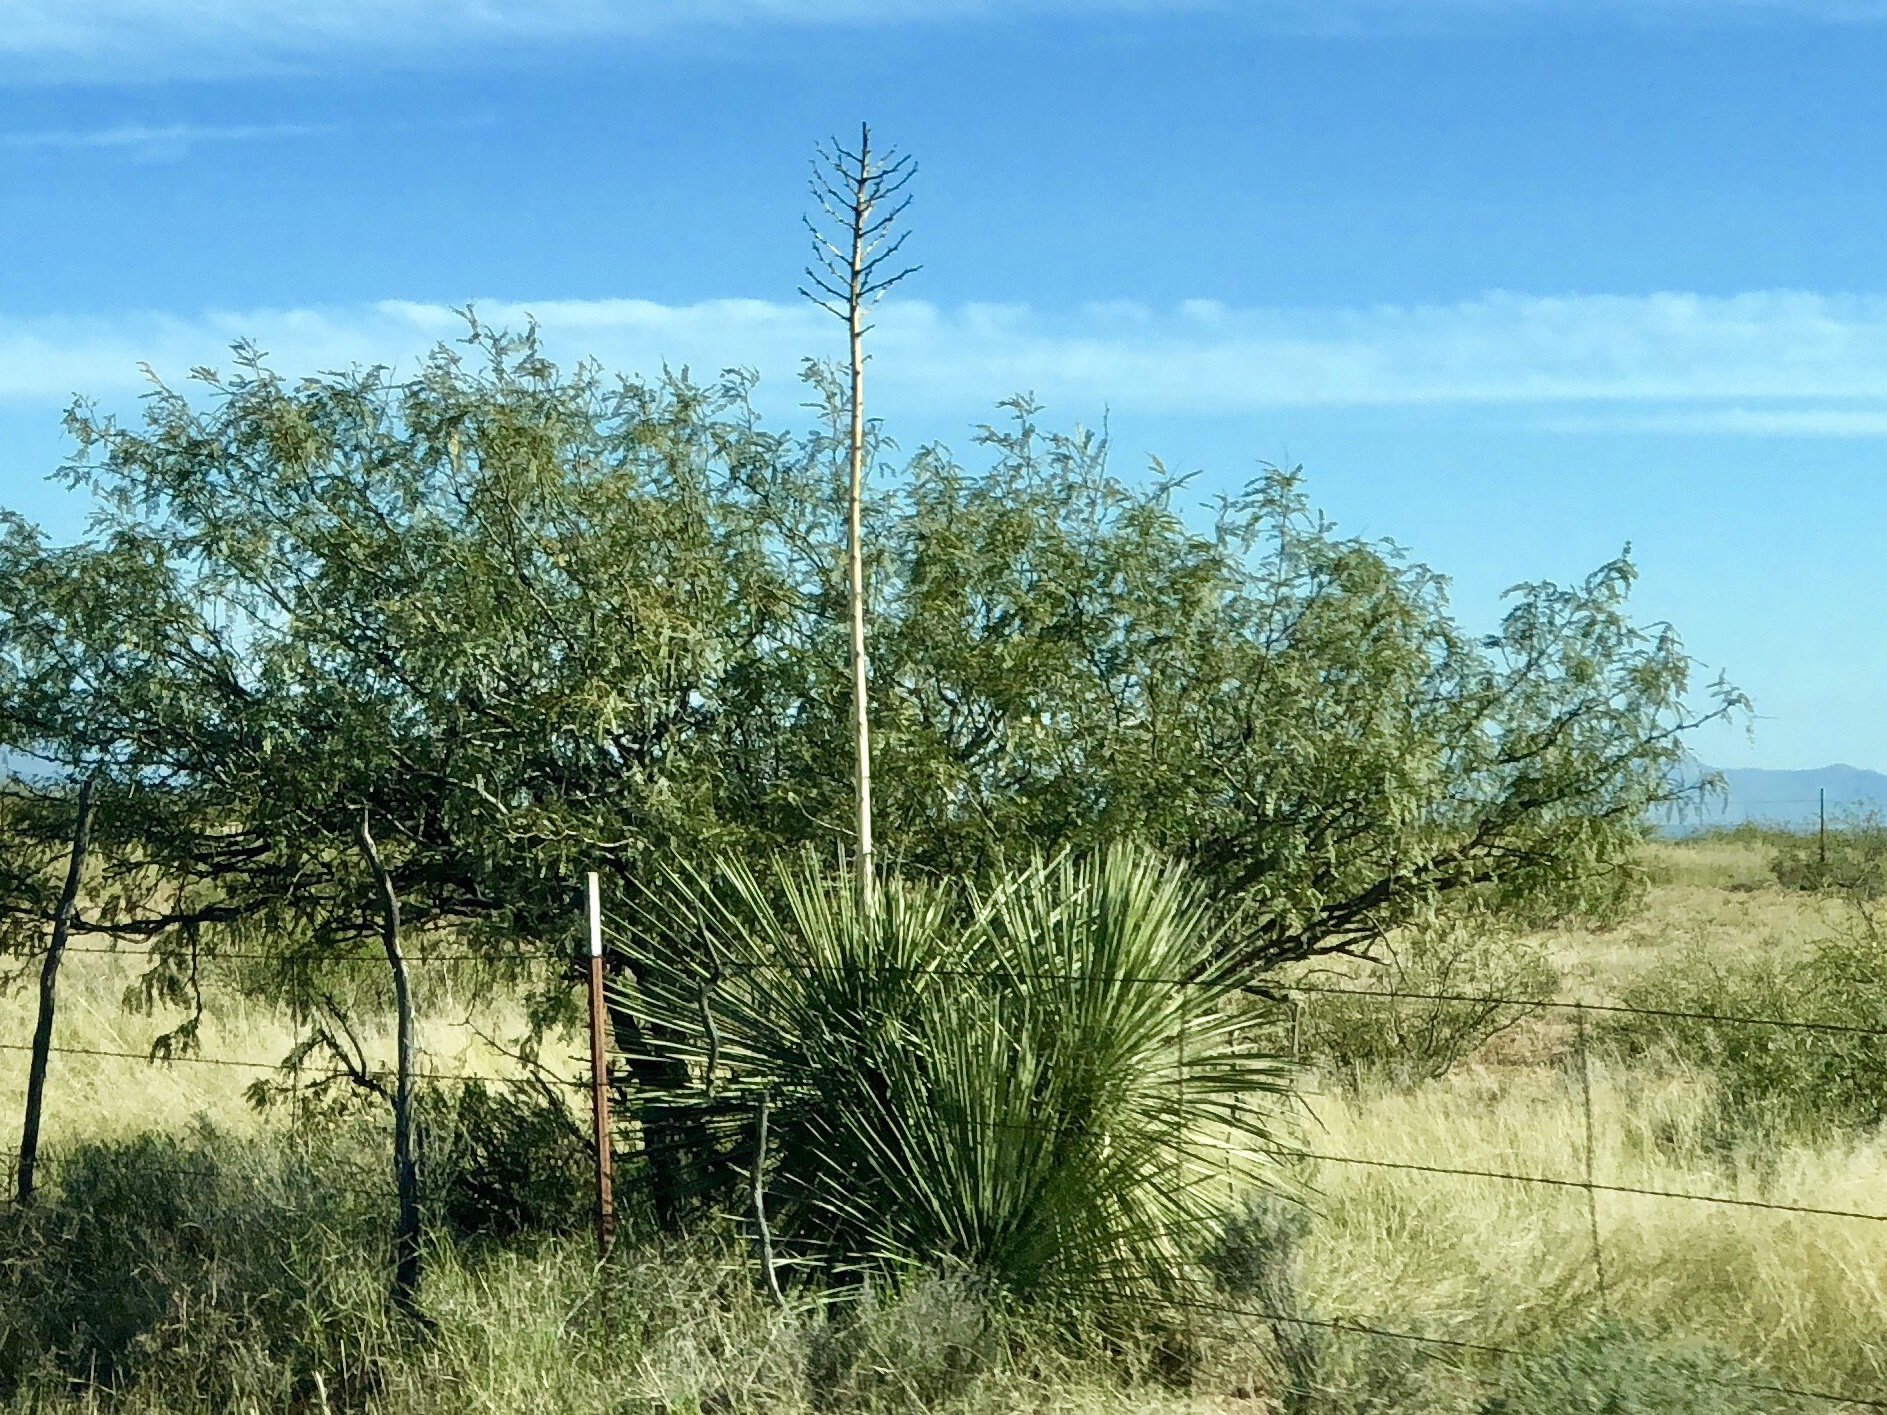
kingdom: Plantae
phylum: Tracheophyta
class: Liliopsida
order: Asparagales
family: Asparagaceae
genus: Yucca
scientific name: Yucca elata
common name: Palmella
